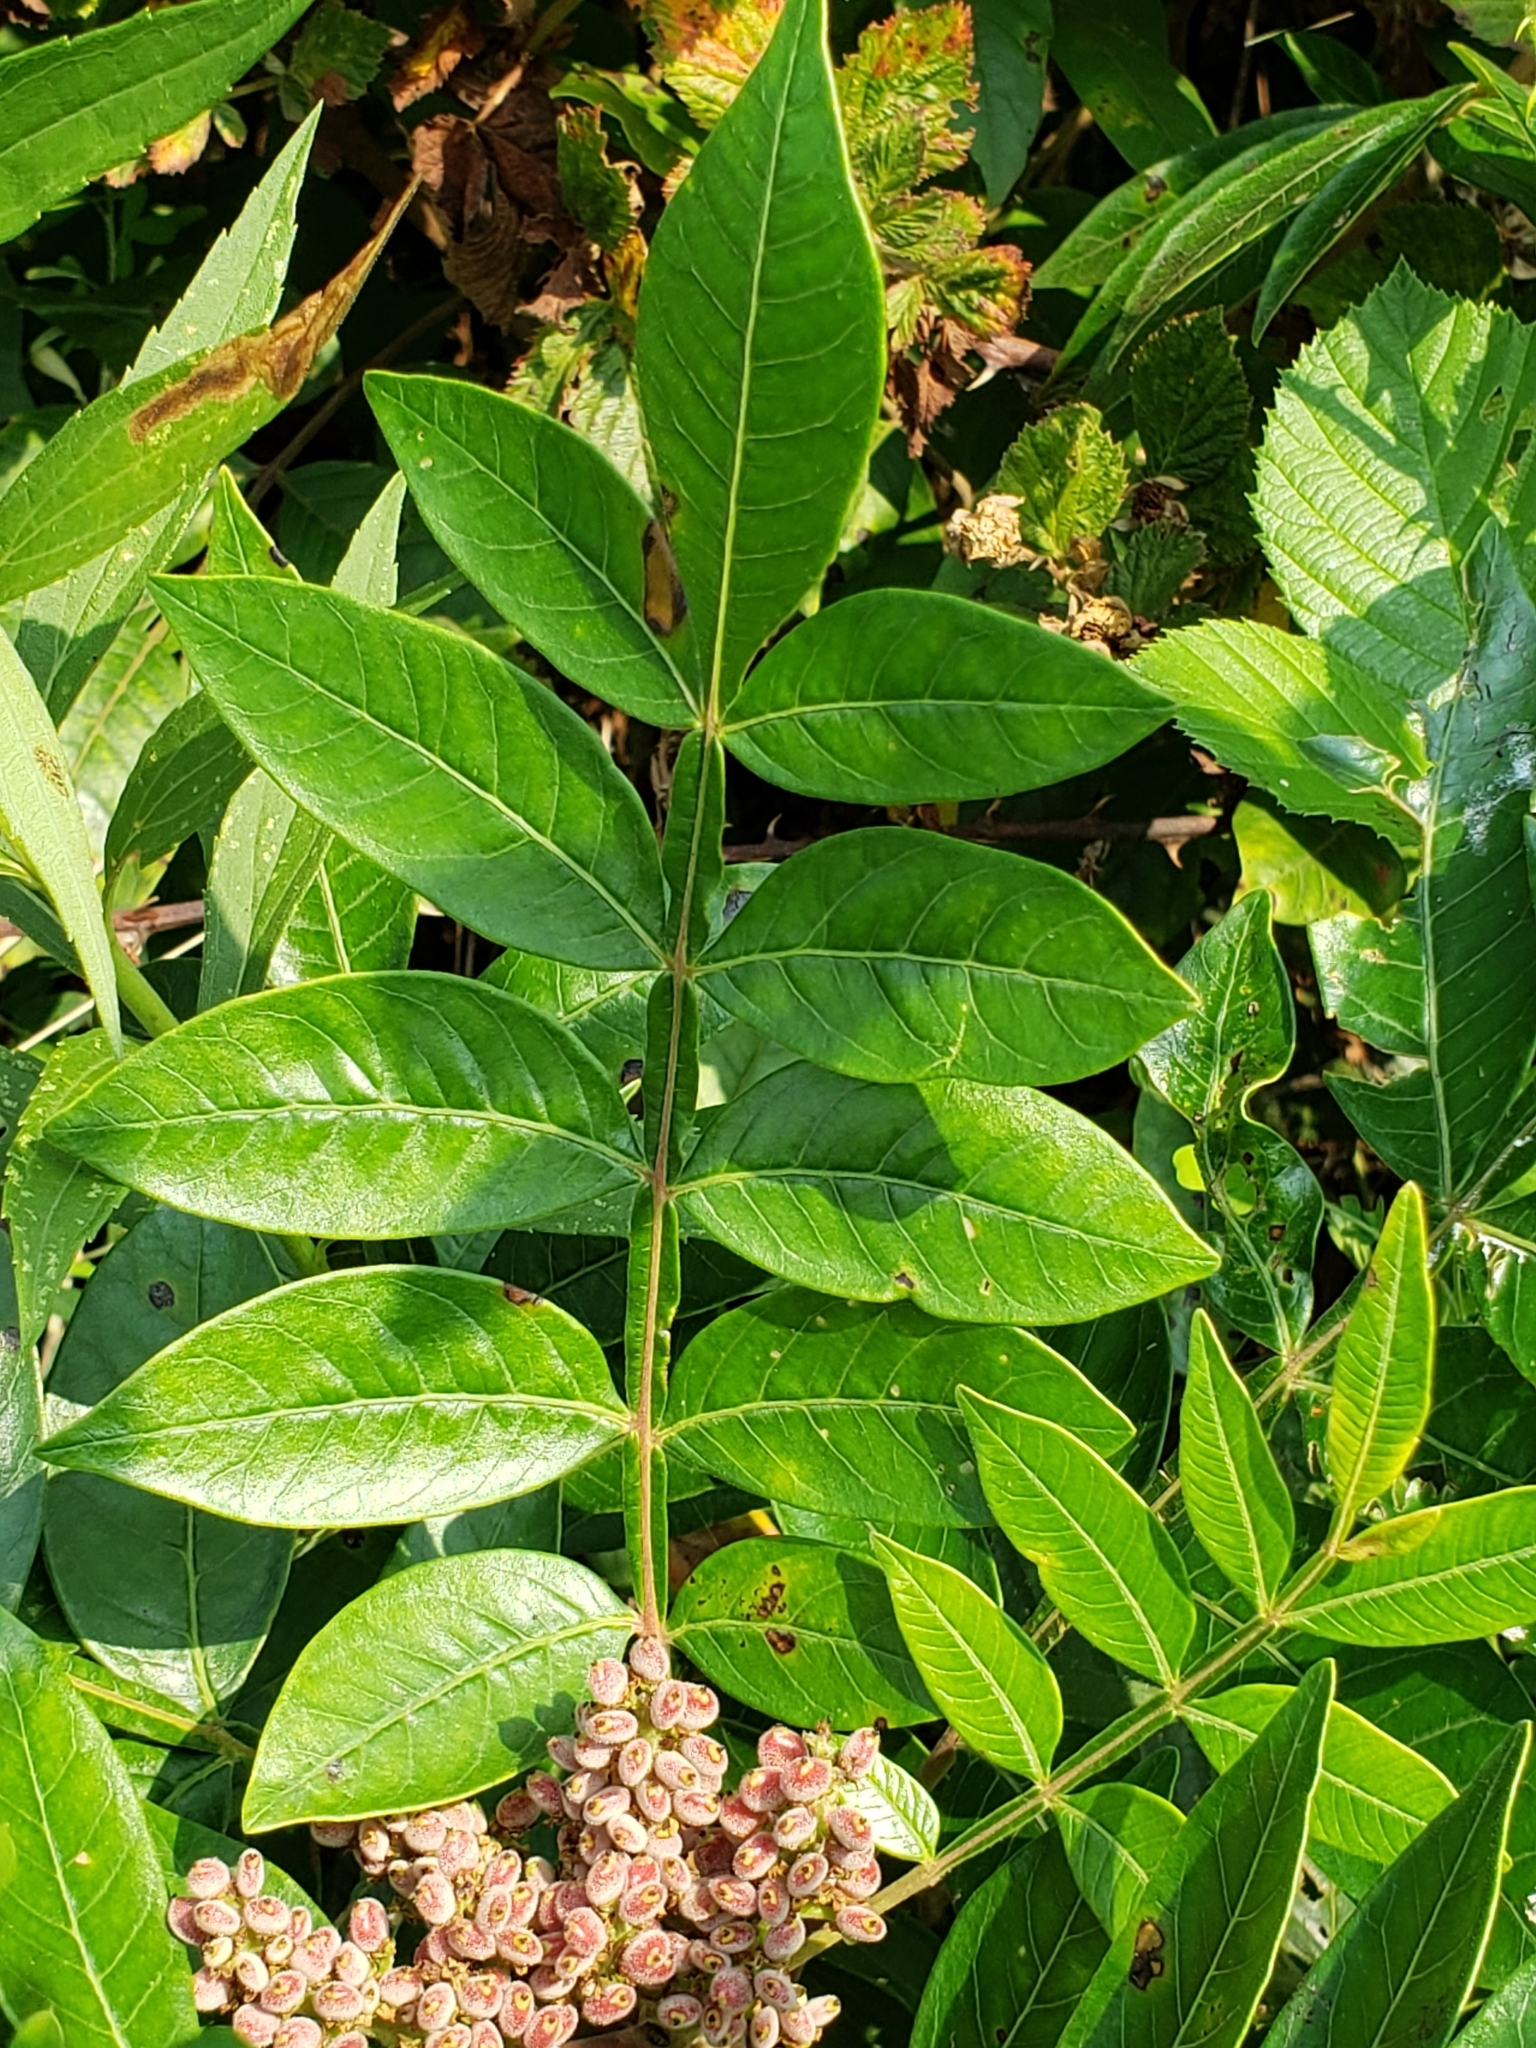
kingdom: Plantae
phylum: Tracheophyta
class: Magnoliopsida
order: Sapindales
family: Anacardiaceae
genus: Rhus
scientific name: Rhus copallina
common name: Shining sumac
